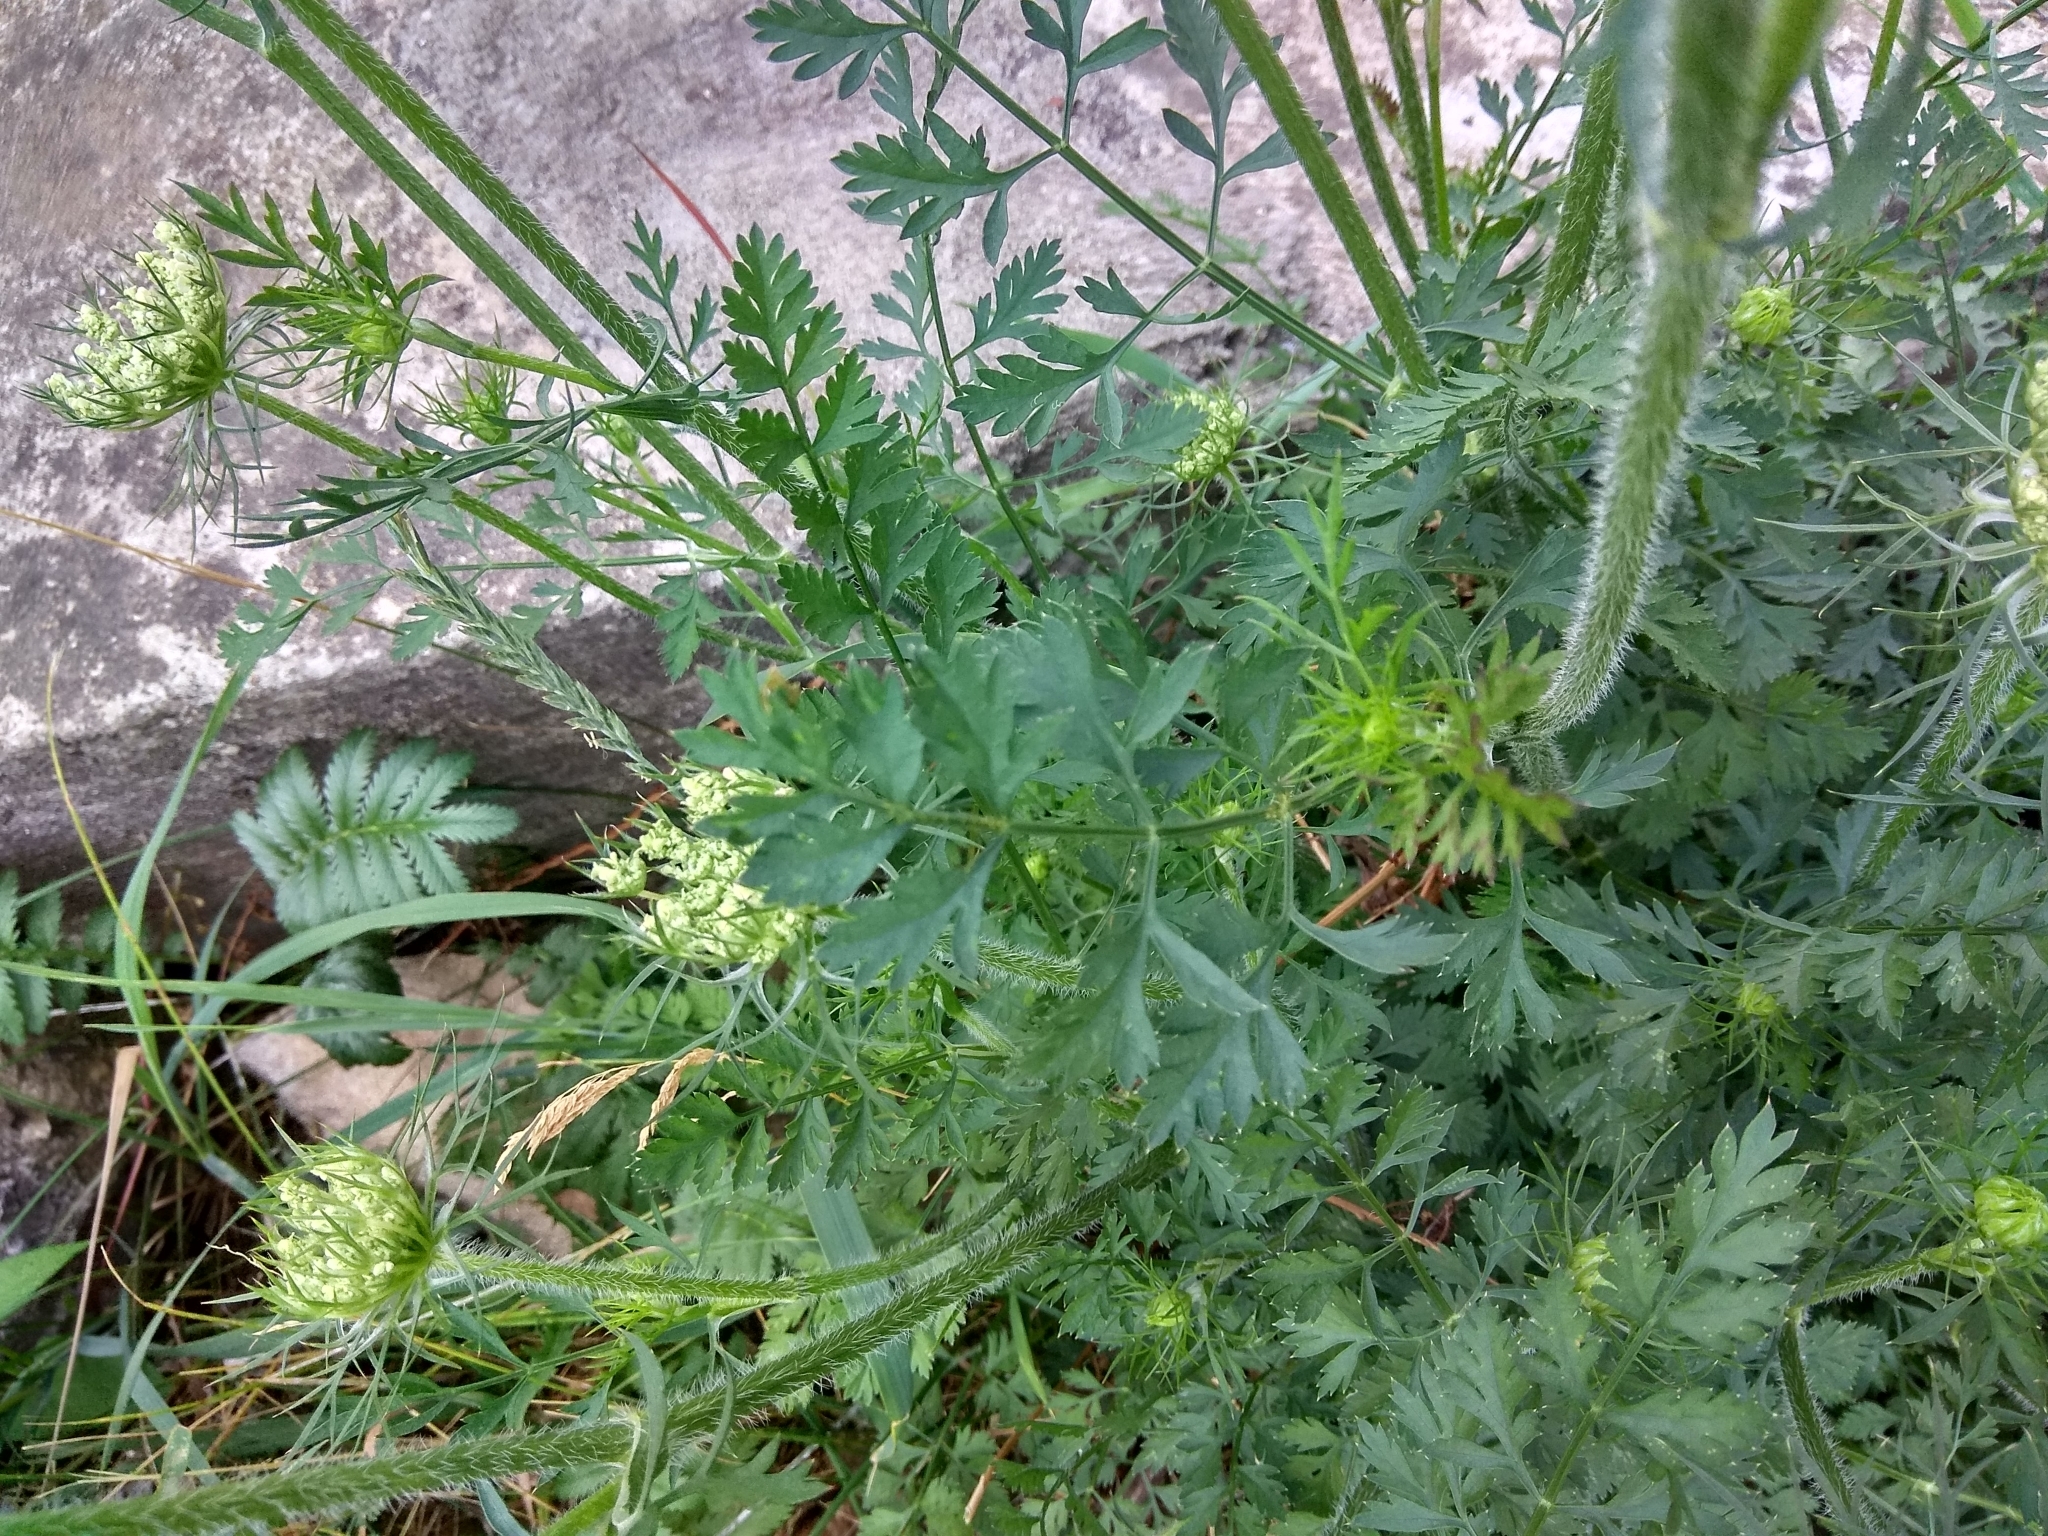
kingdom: Plantae
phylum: Tracheophyta
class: Magnoliopsida
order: Apiales
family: Apiaceae
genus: Daucus
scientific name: Daucus carota
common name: Wild carrot
